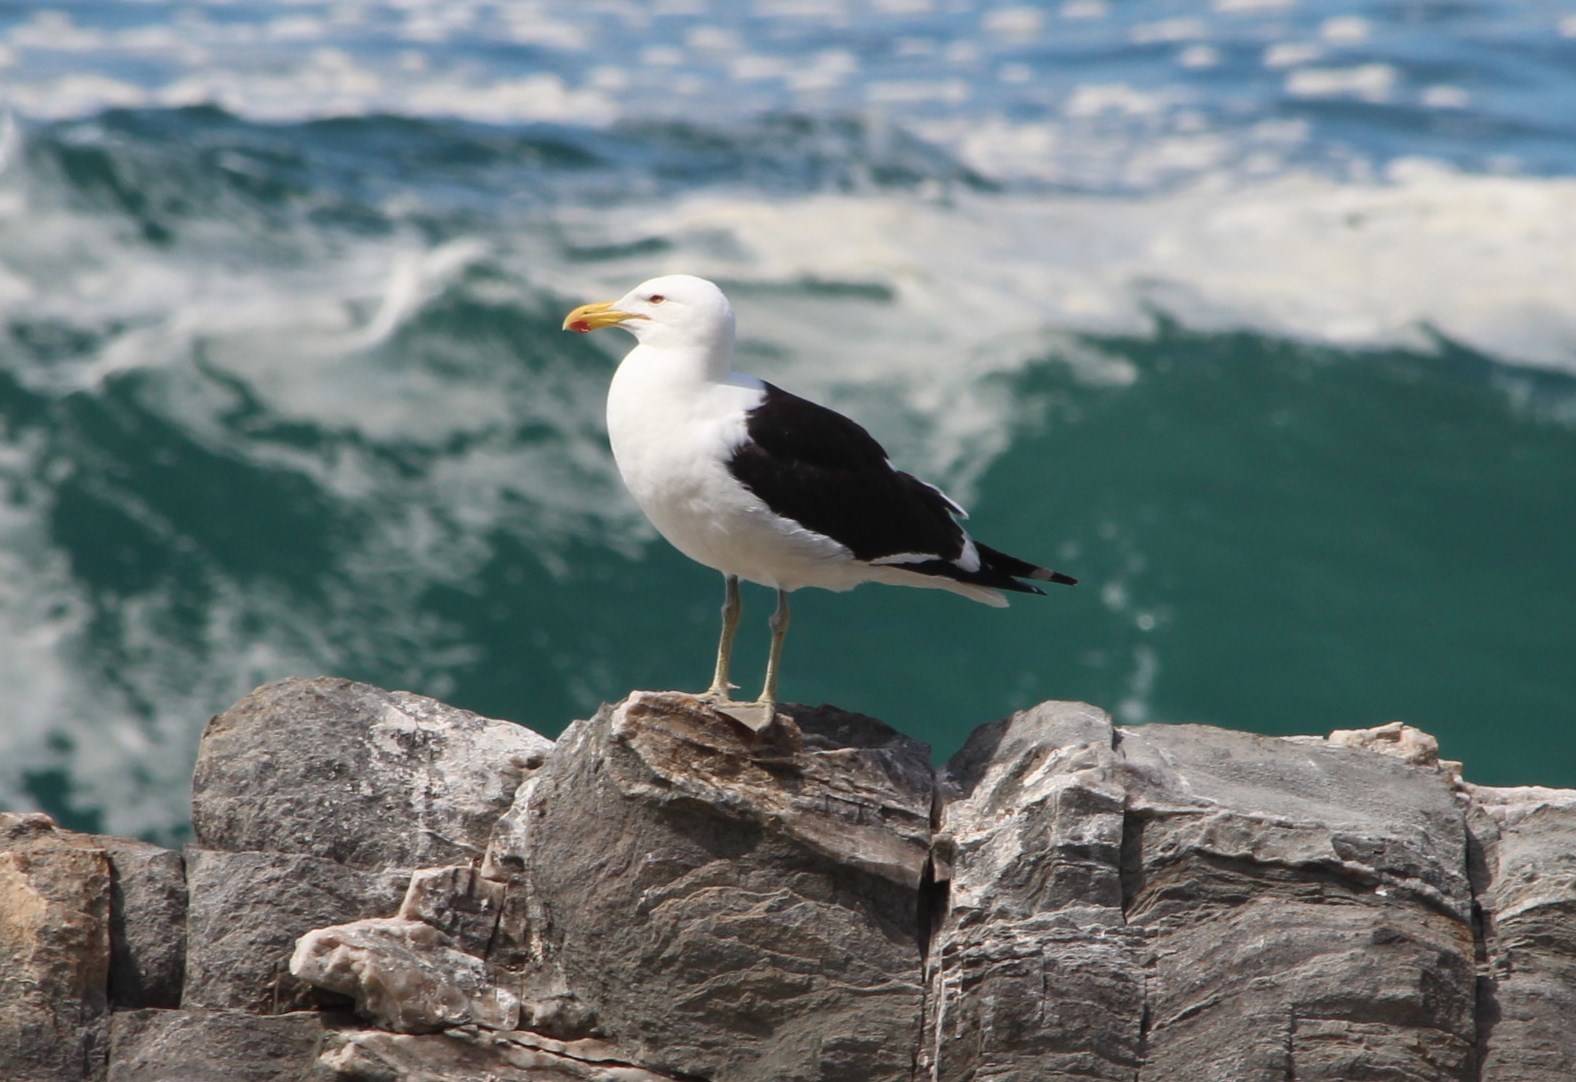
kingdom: Animalia
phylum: Chordata
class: Aves
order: Charadriiformes
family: Laridae
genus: Larus
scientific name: Larus dominicanus
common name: Kelp gull
